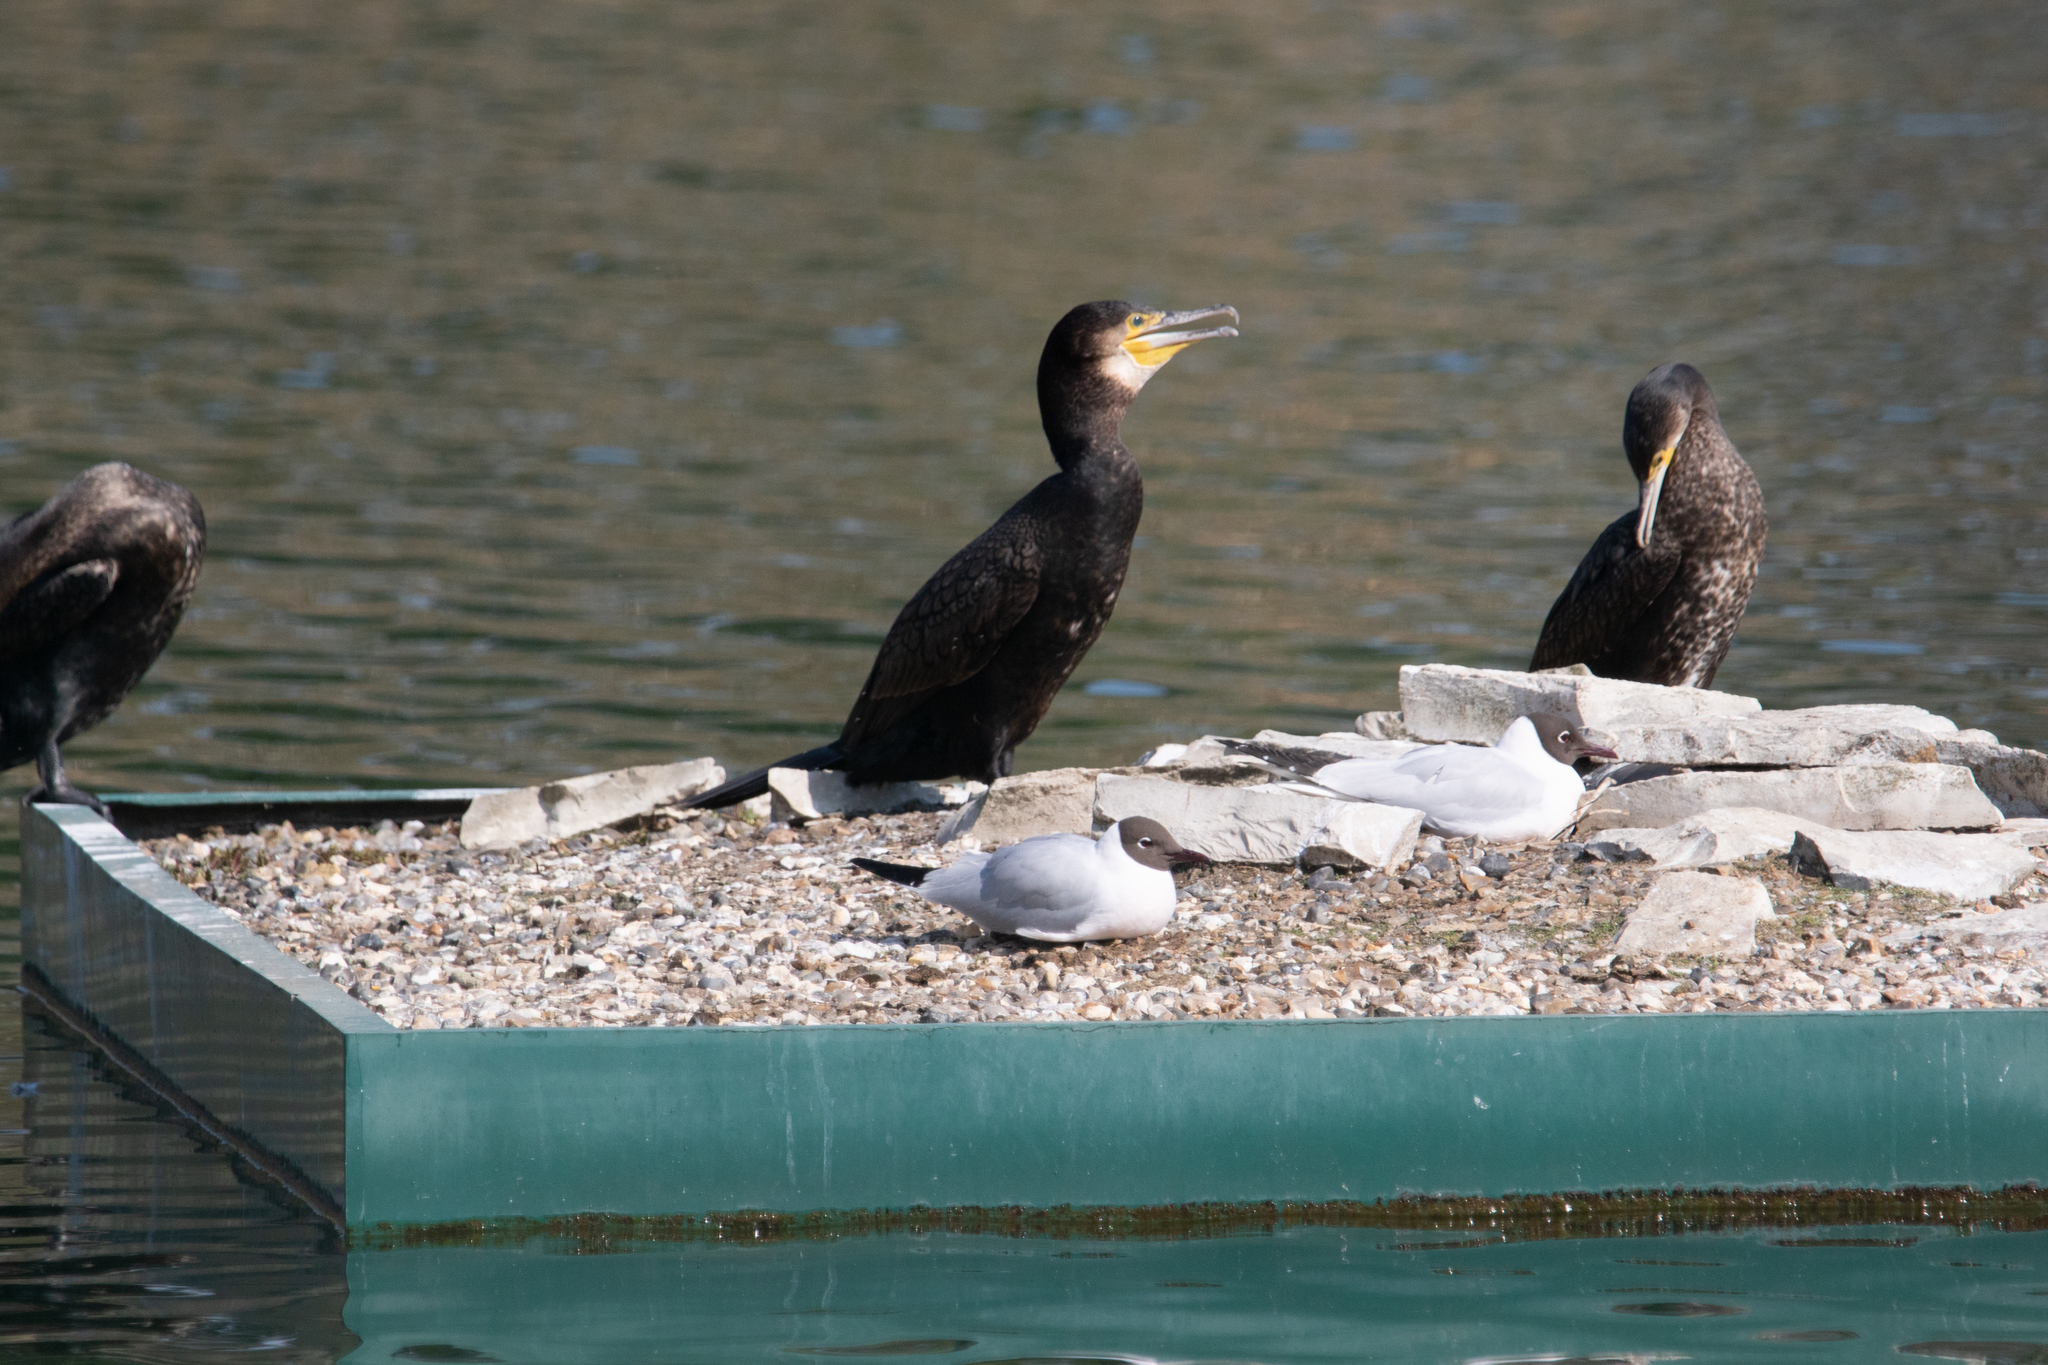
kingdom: Animalia
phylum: Chordata
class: Aves
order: Suliformes
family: Phalacrocoracidae
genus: Phalacrocorax
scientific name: Phalacrocorax carbo
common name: Great cormorant
